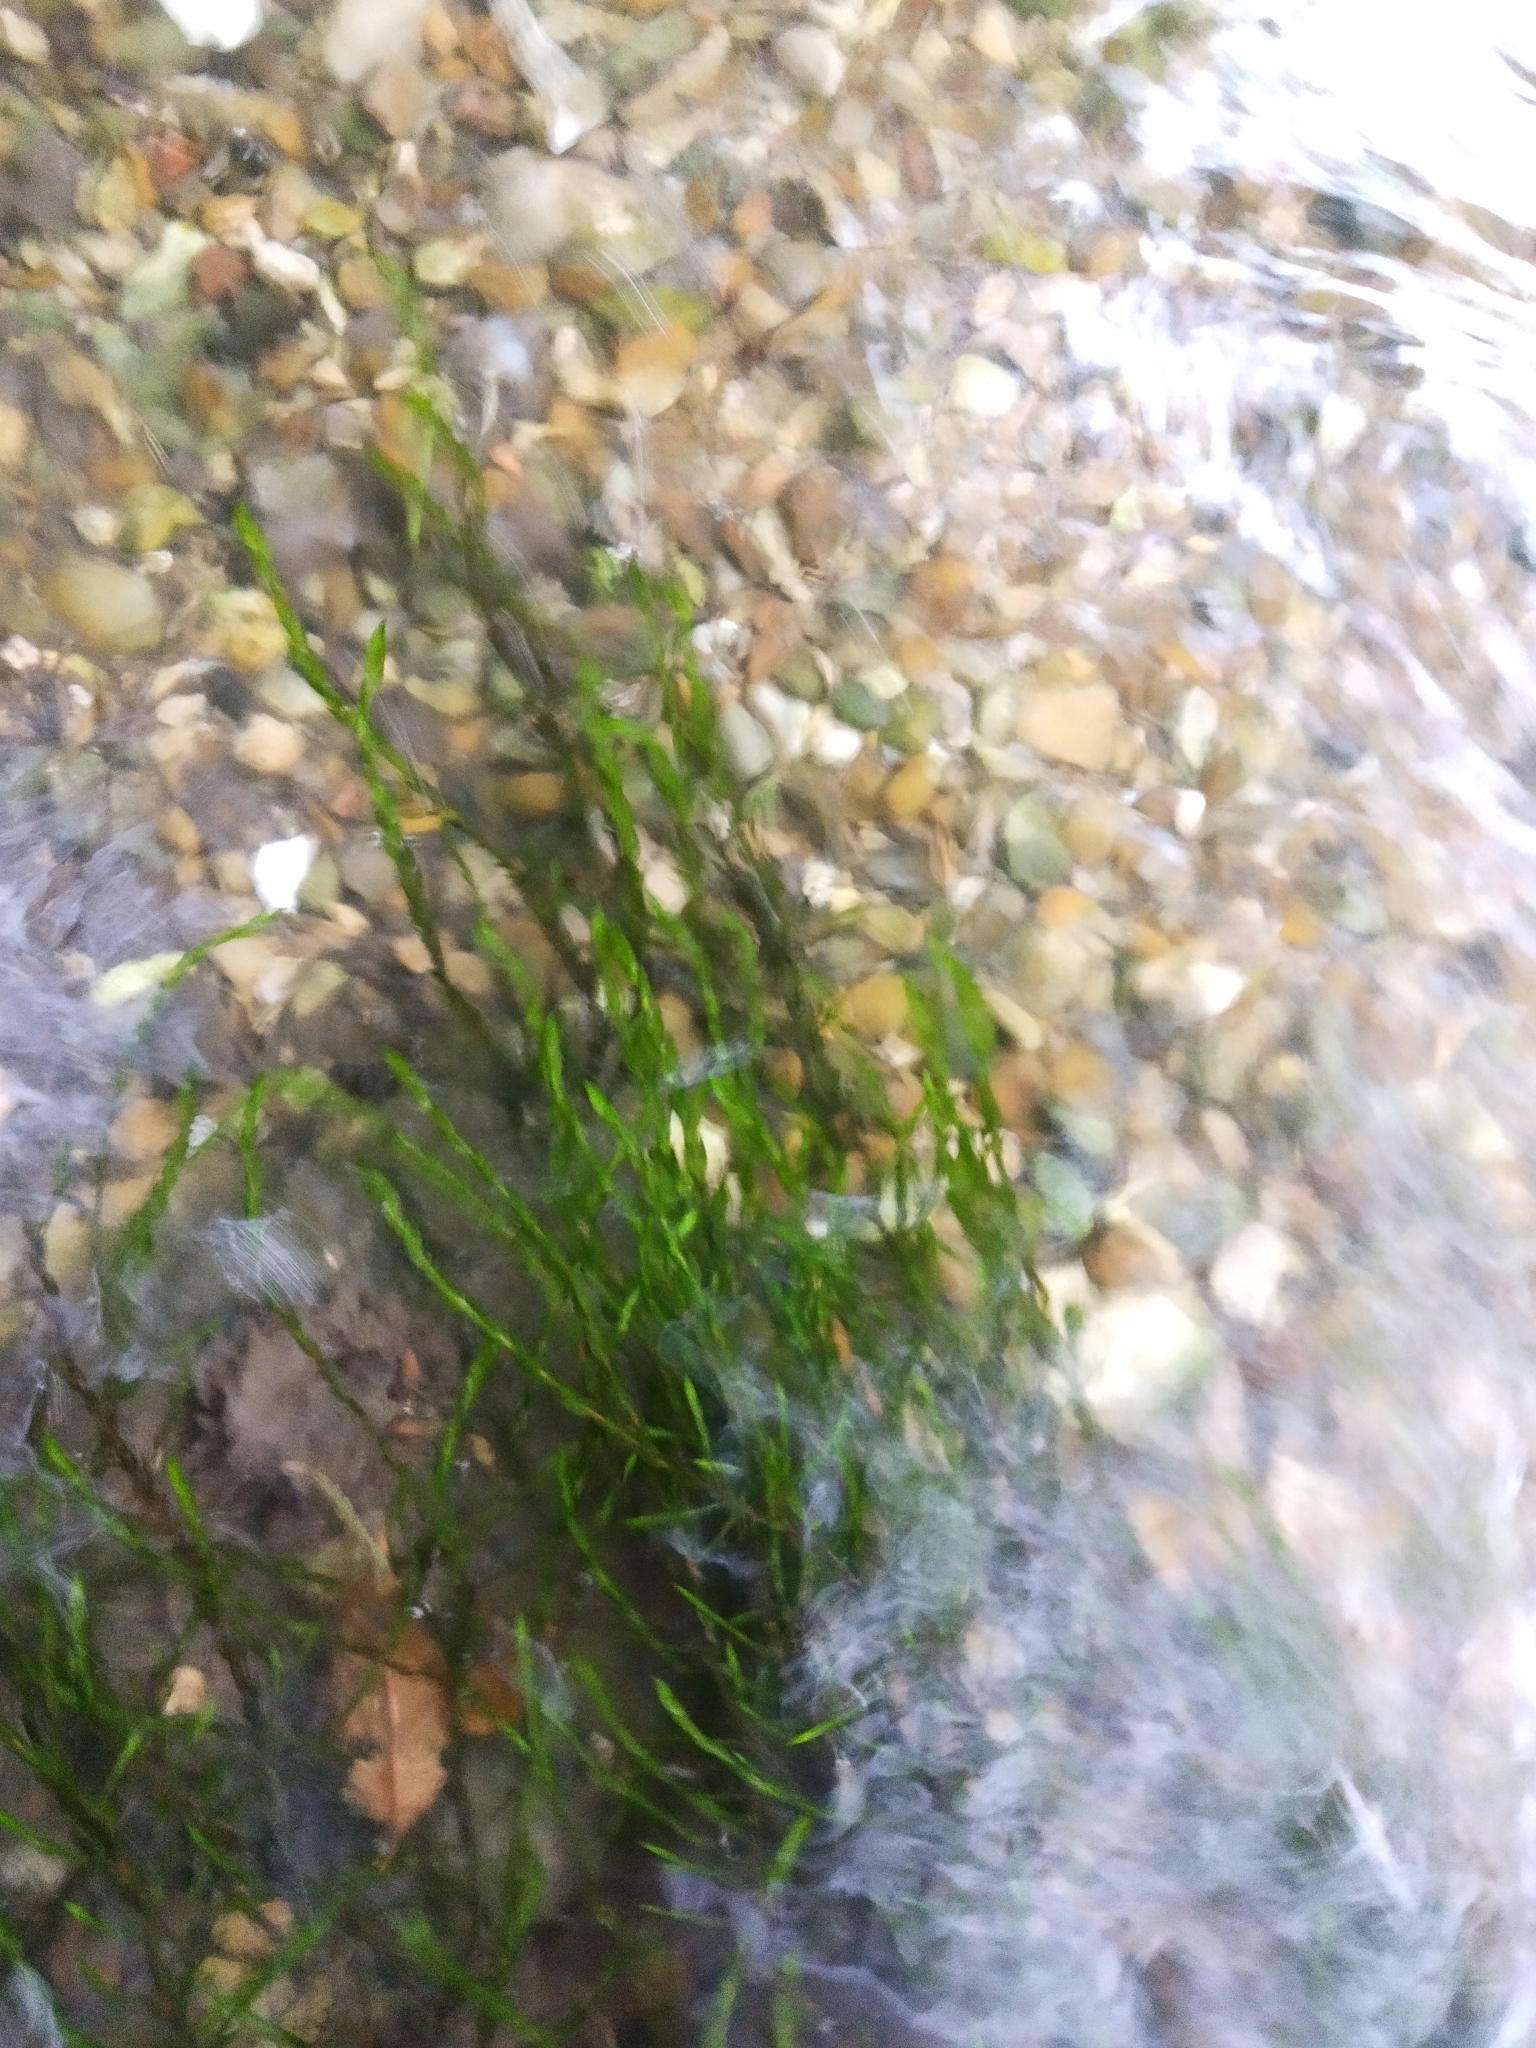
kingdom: Plantae
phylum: Bryophyta
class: Bryopsida
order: Hypnales
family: Fontinalaceae
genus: Fontinalis
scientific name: Fontinalis antipyretica
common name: Greater water-moss
